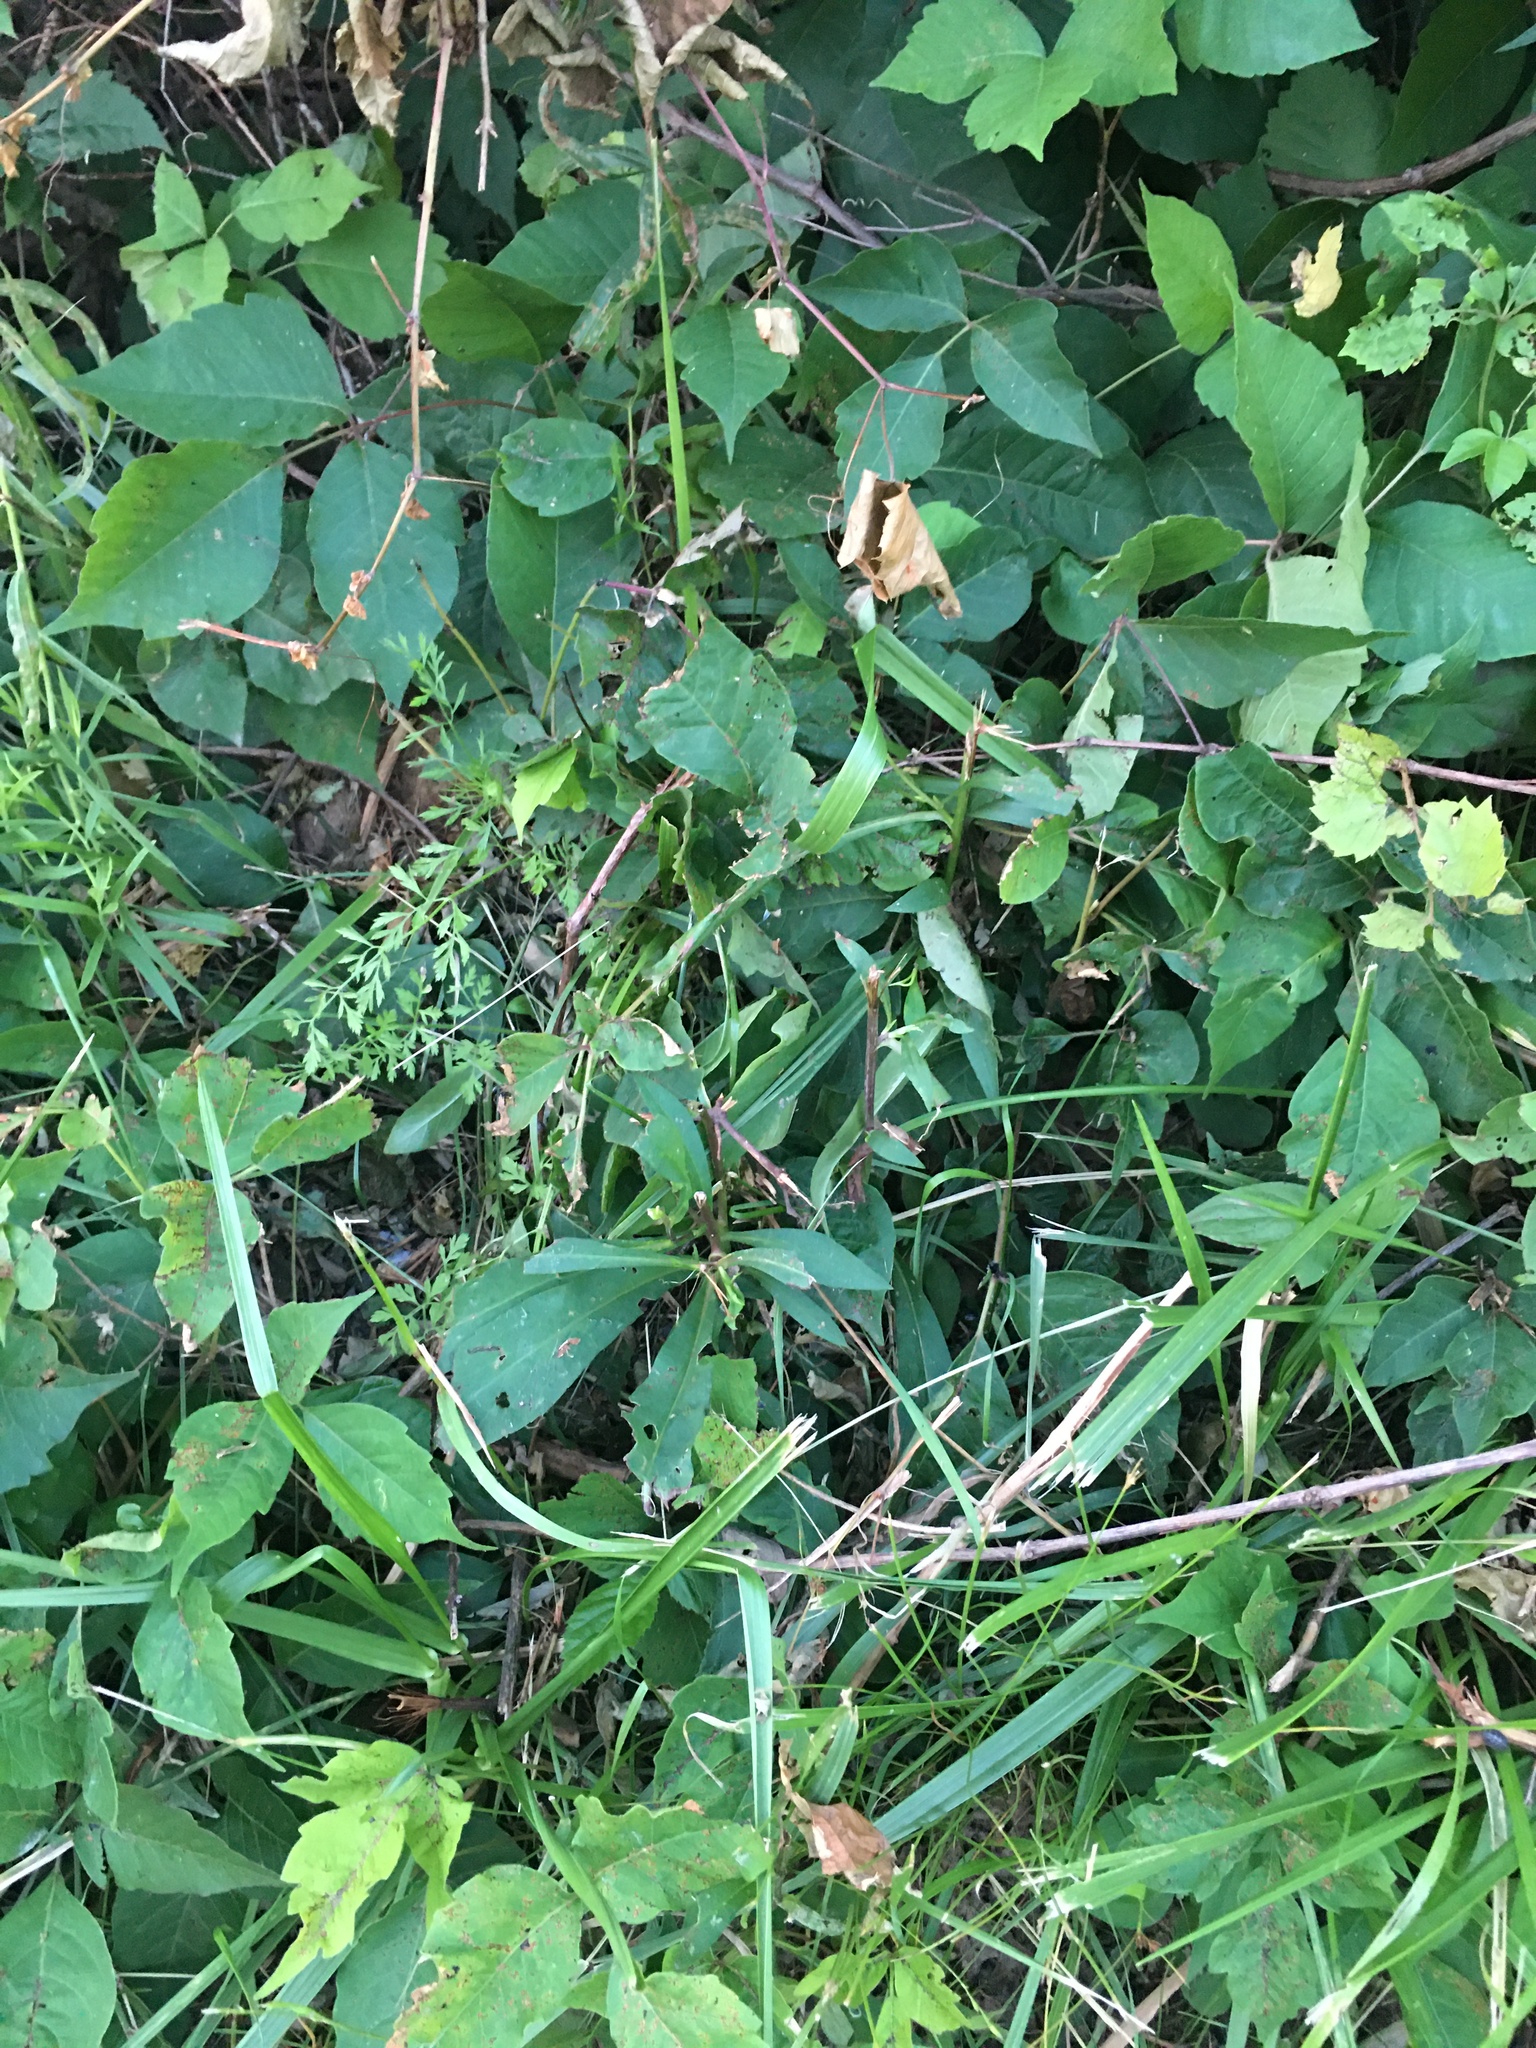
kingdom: Plantae
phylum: Tracheophyta
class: Magnoliopsida
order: Sapindales
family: Anacardiaceae
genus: Toxicodendron
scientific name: Toxicodendron rydbergii
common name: Rydberg's poison-ivy
